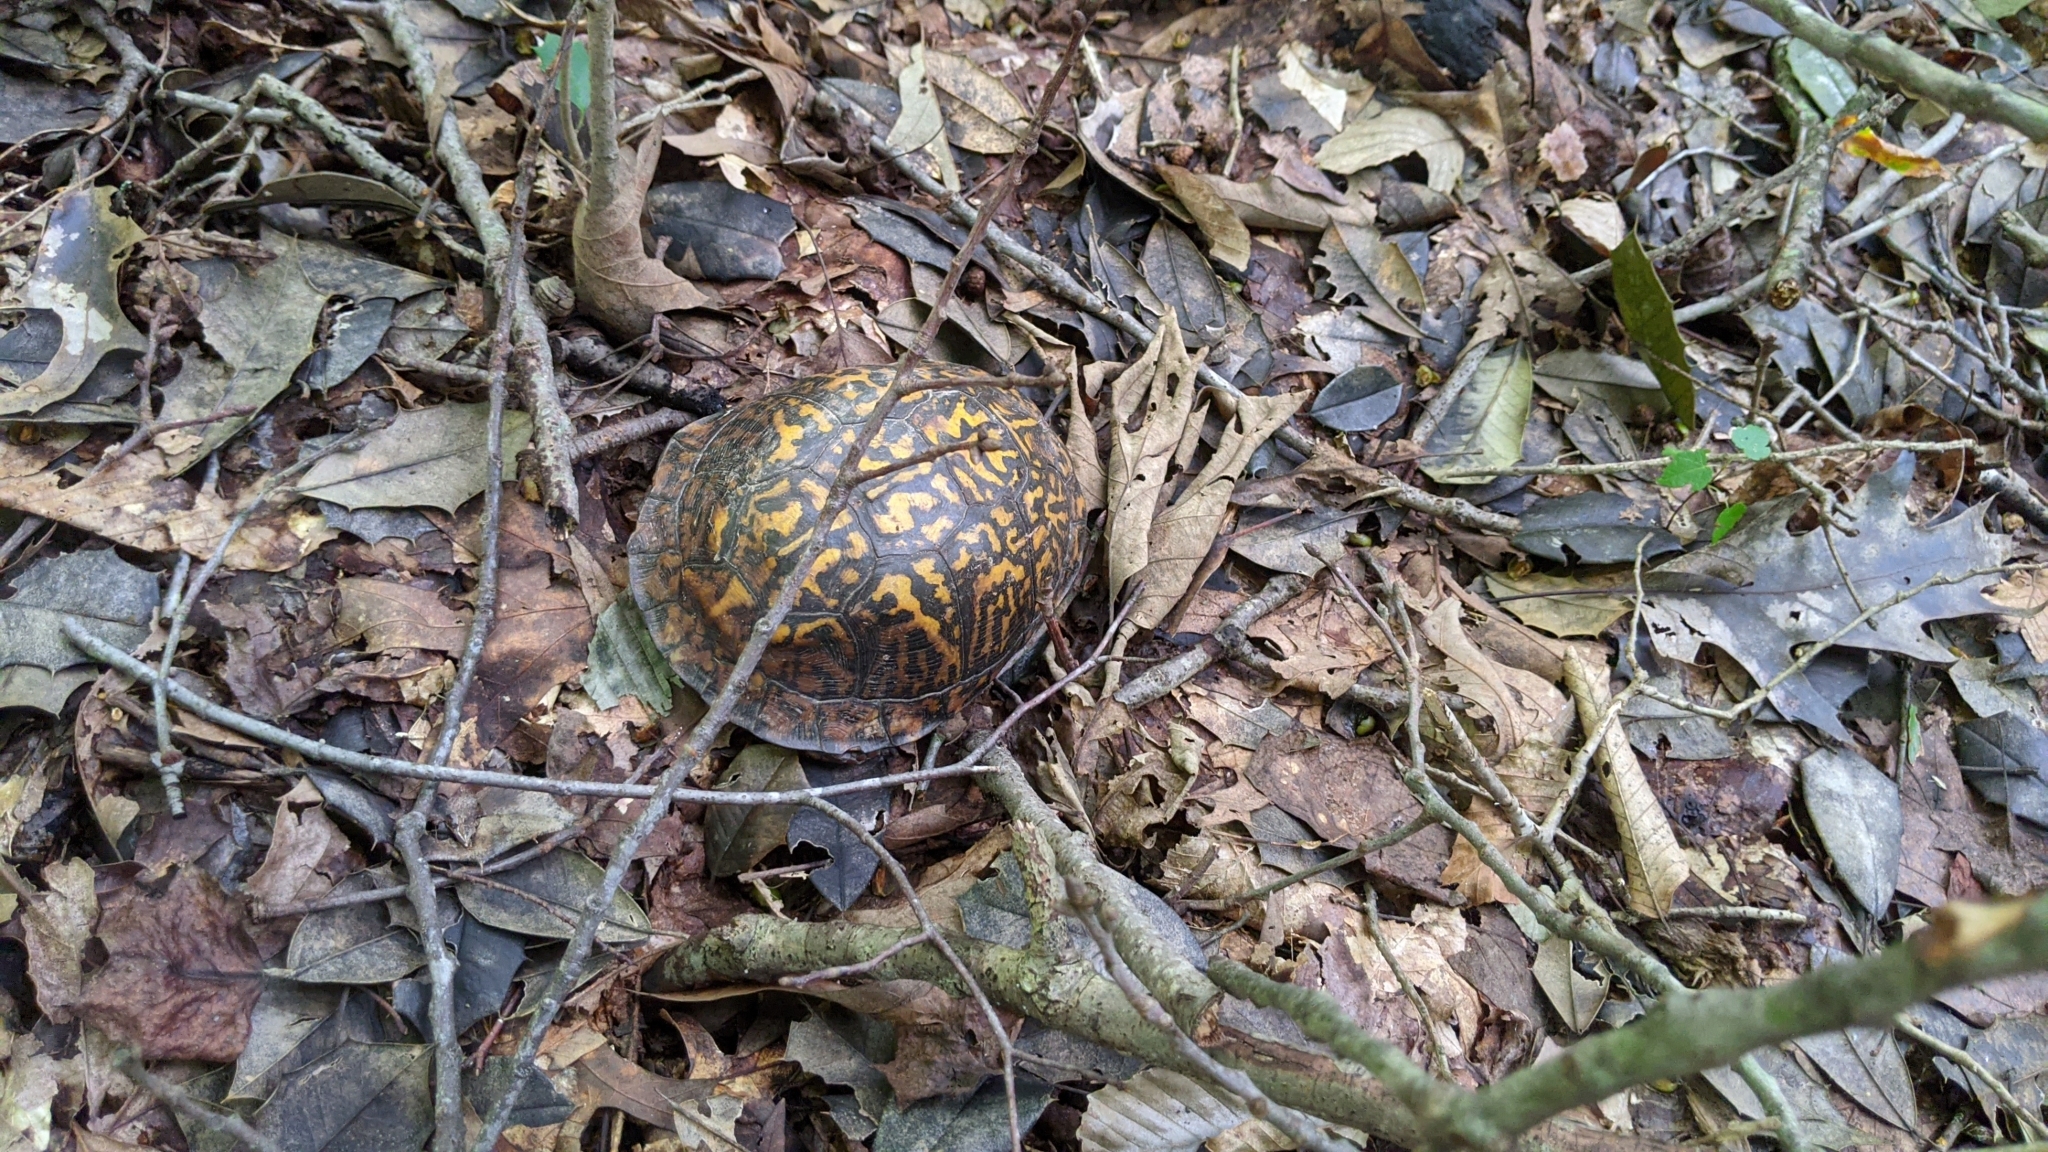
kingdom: Animalia
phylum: Chordata
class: Testudines
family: Emydidae
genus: Terrapene
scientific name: Terrapene carolina
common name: Common box turtle
